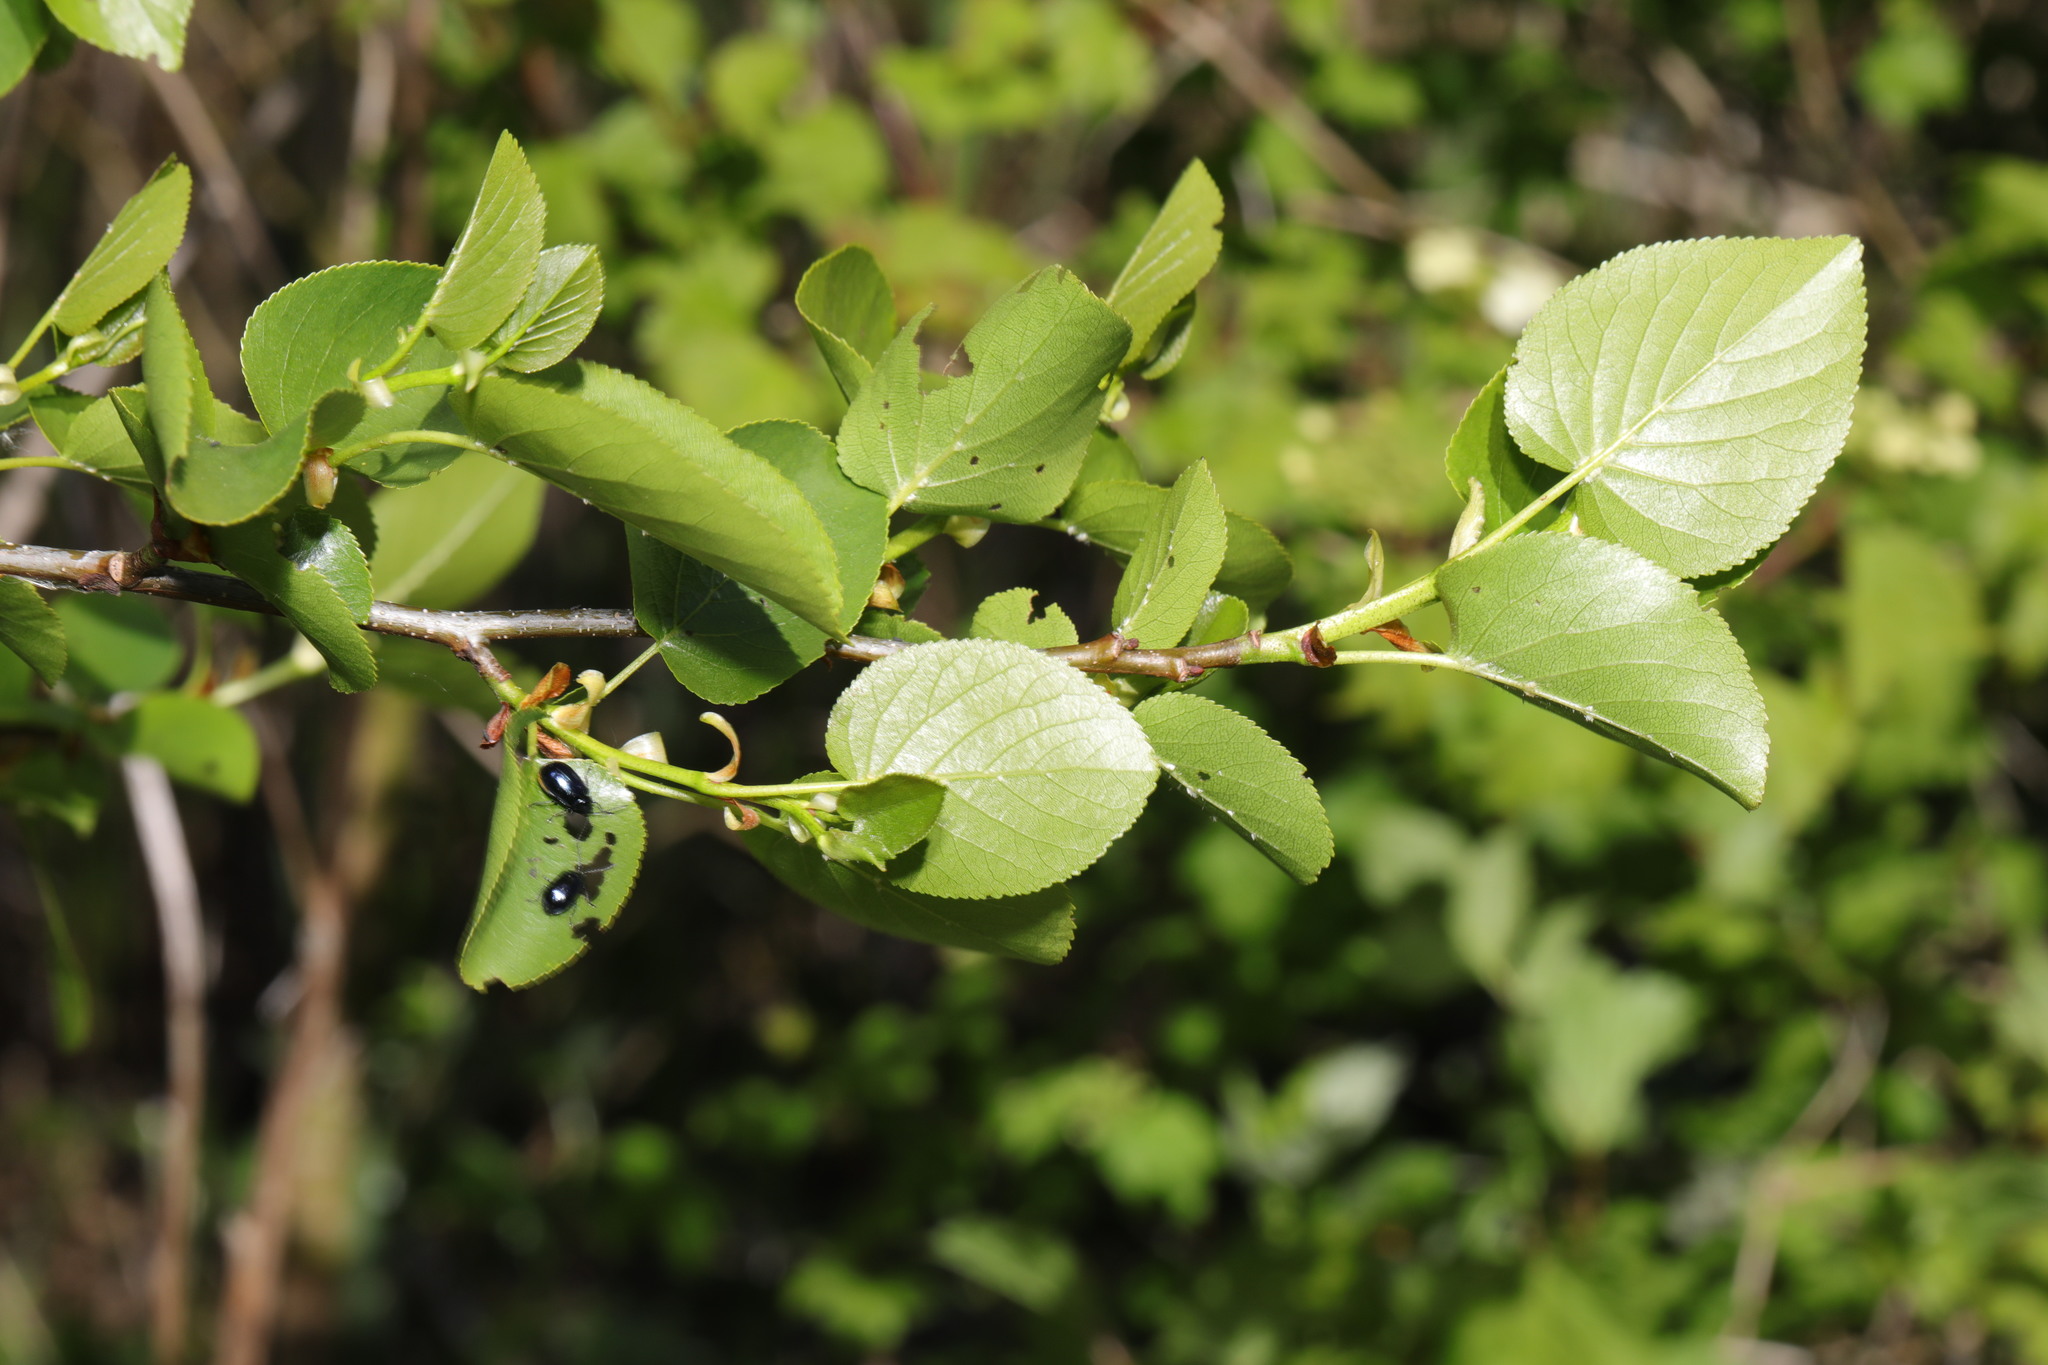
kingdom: Plantae
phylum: Tracheophyta
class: Magnoliopsida
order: Fagales
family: Betulaceae
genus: Alnus
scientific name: Alnus cordata
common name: Italian alder
